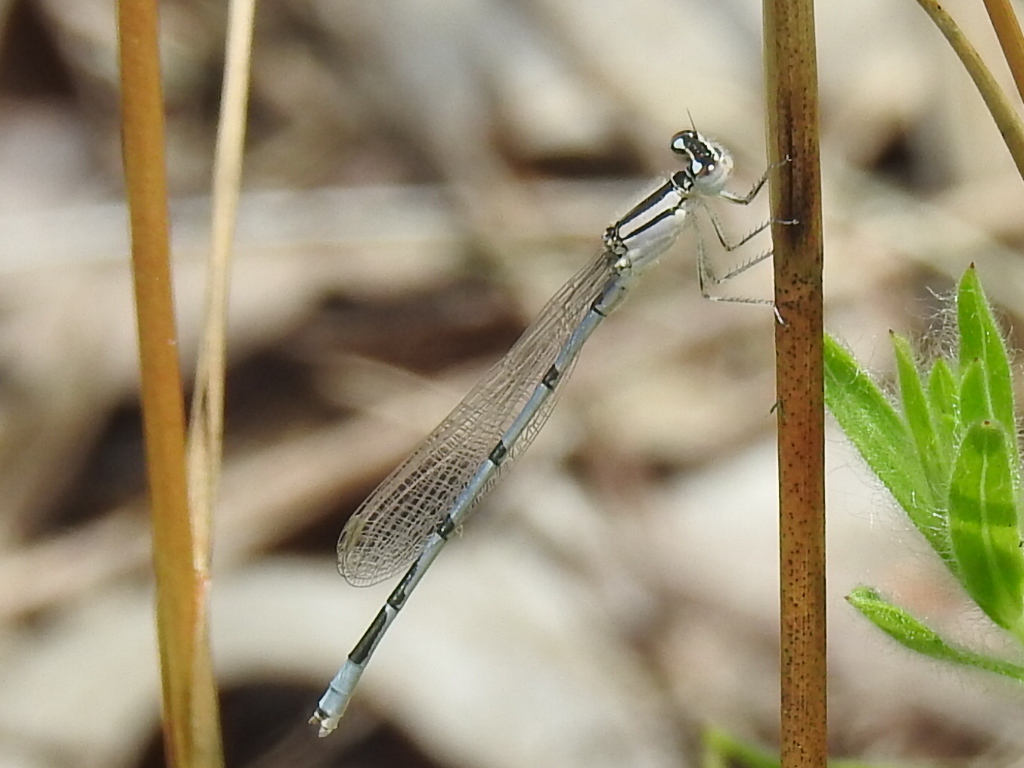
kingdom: Animalia
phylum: Arthropoda
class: Insecta
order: Odonata
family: Coenagrionidae
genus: Enallagma
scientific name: Enallagma civile
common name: Damselfly
